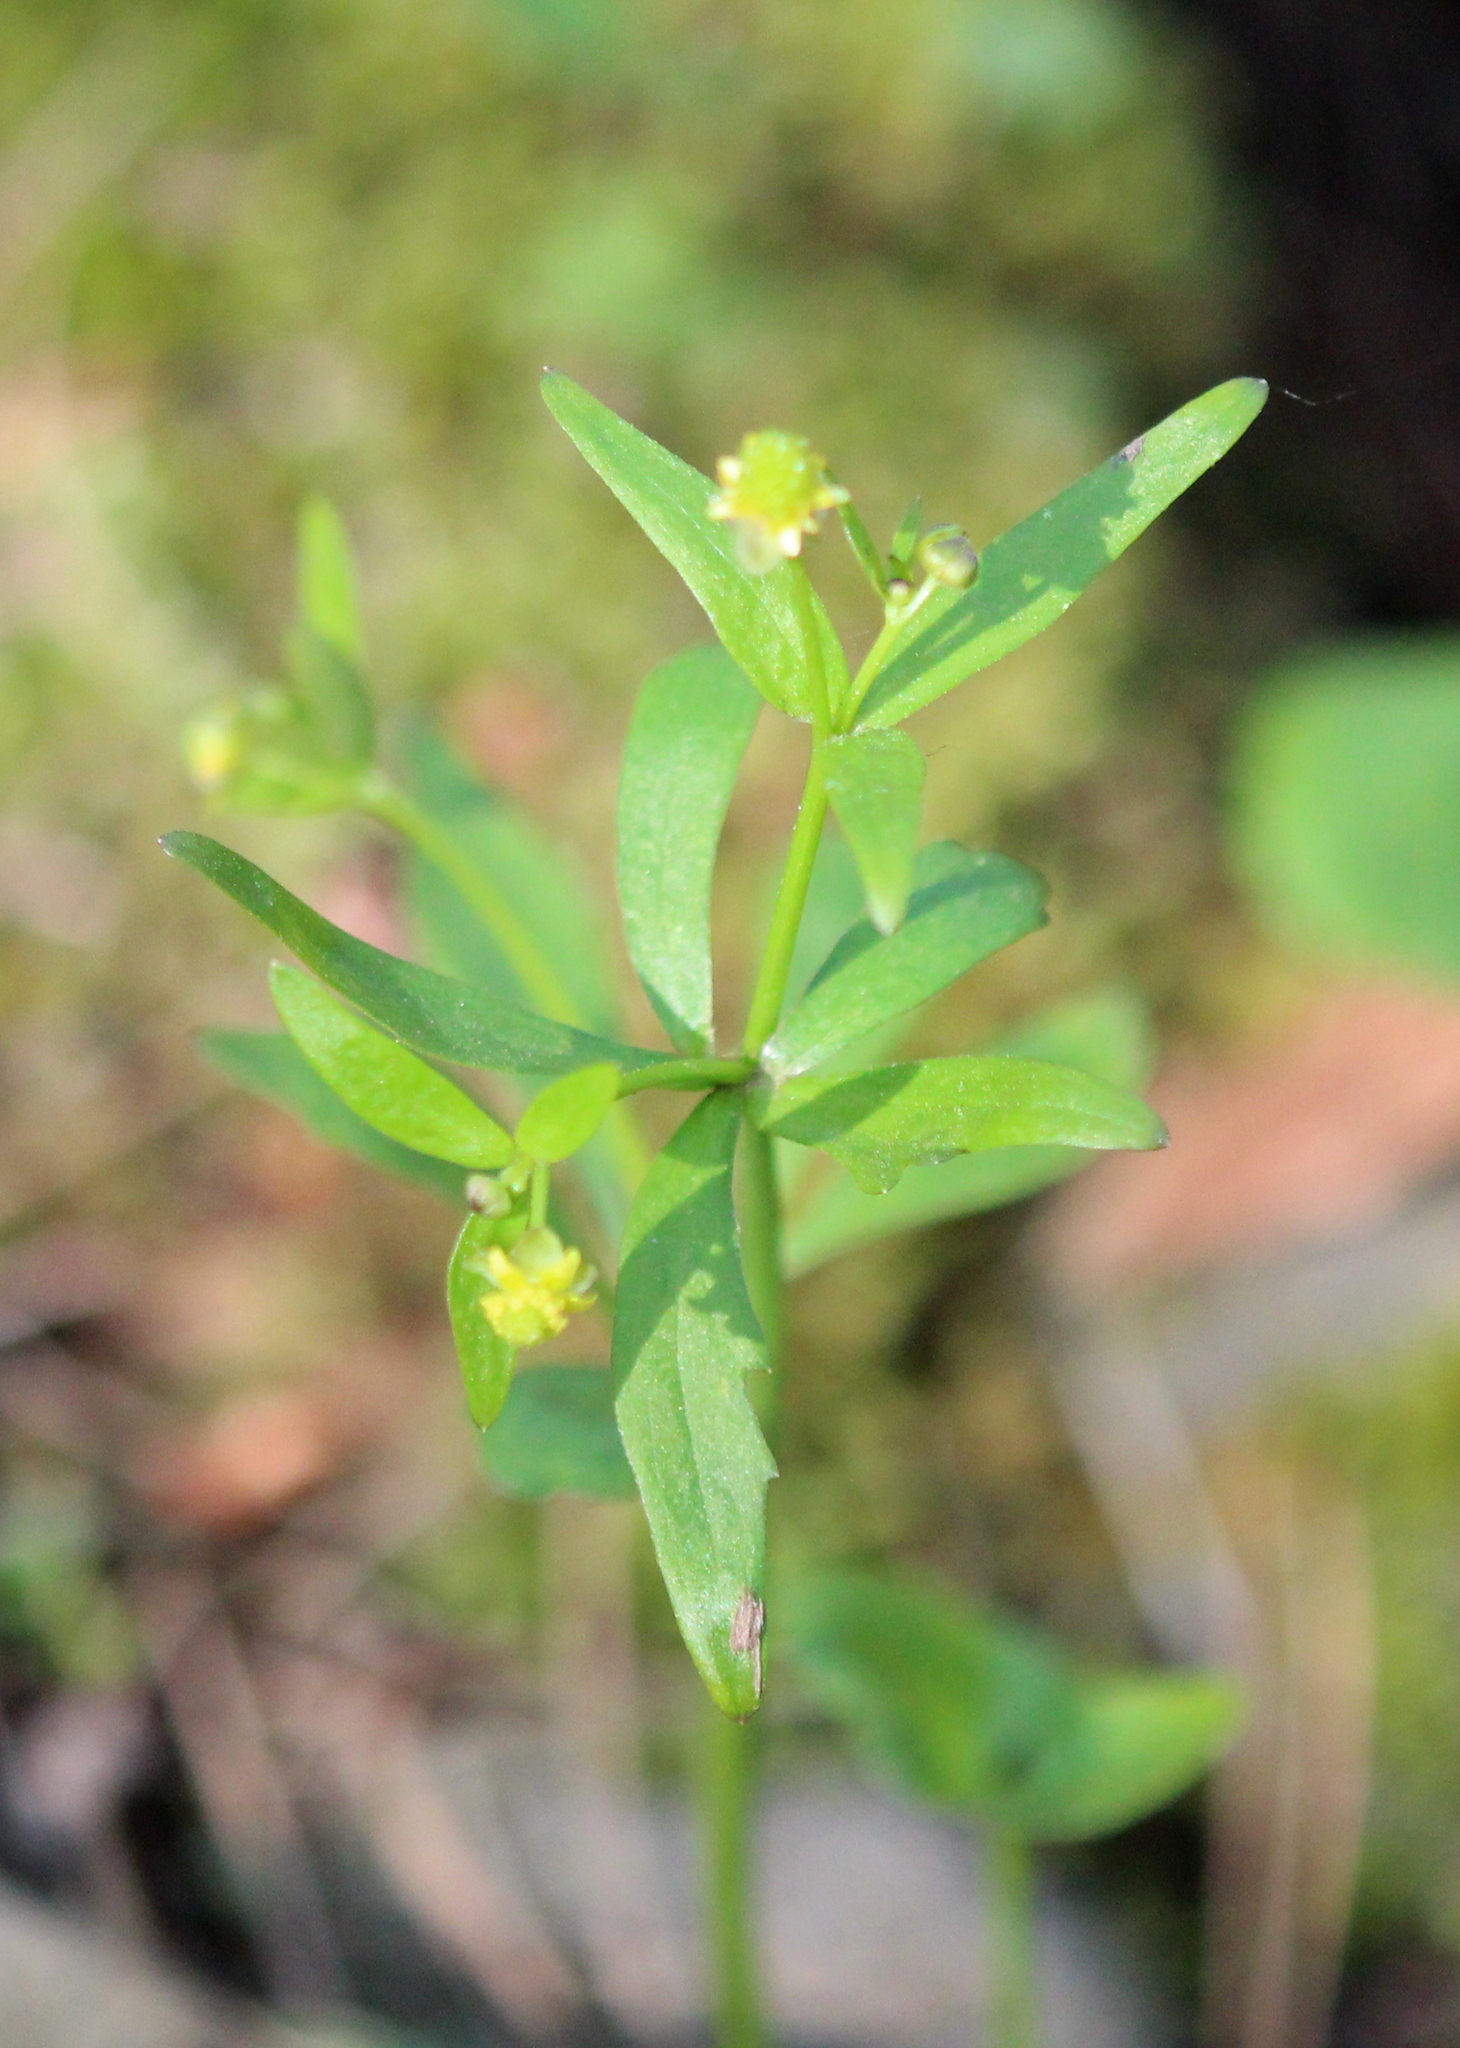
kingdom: Plantae
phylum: Tracheophyta
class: Magnoliopsida
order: Ranunculales
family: Ranunculaceae
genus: Ranunculus
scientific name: Ranunculus abortivus
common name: Early wood buttercup
